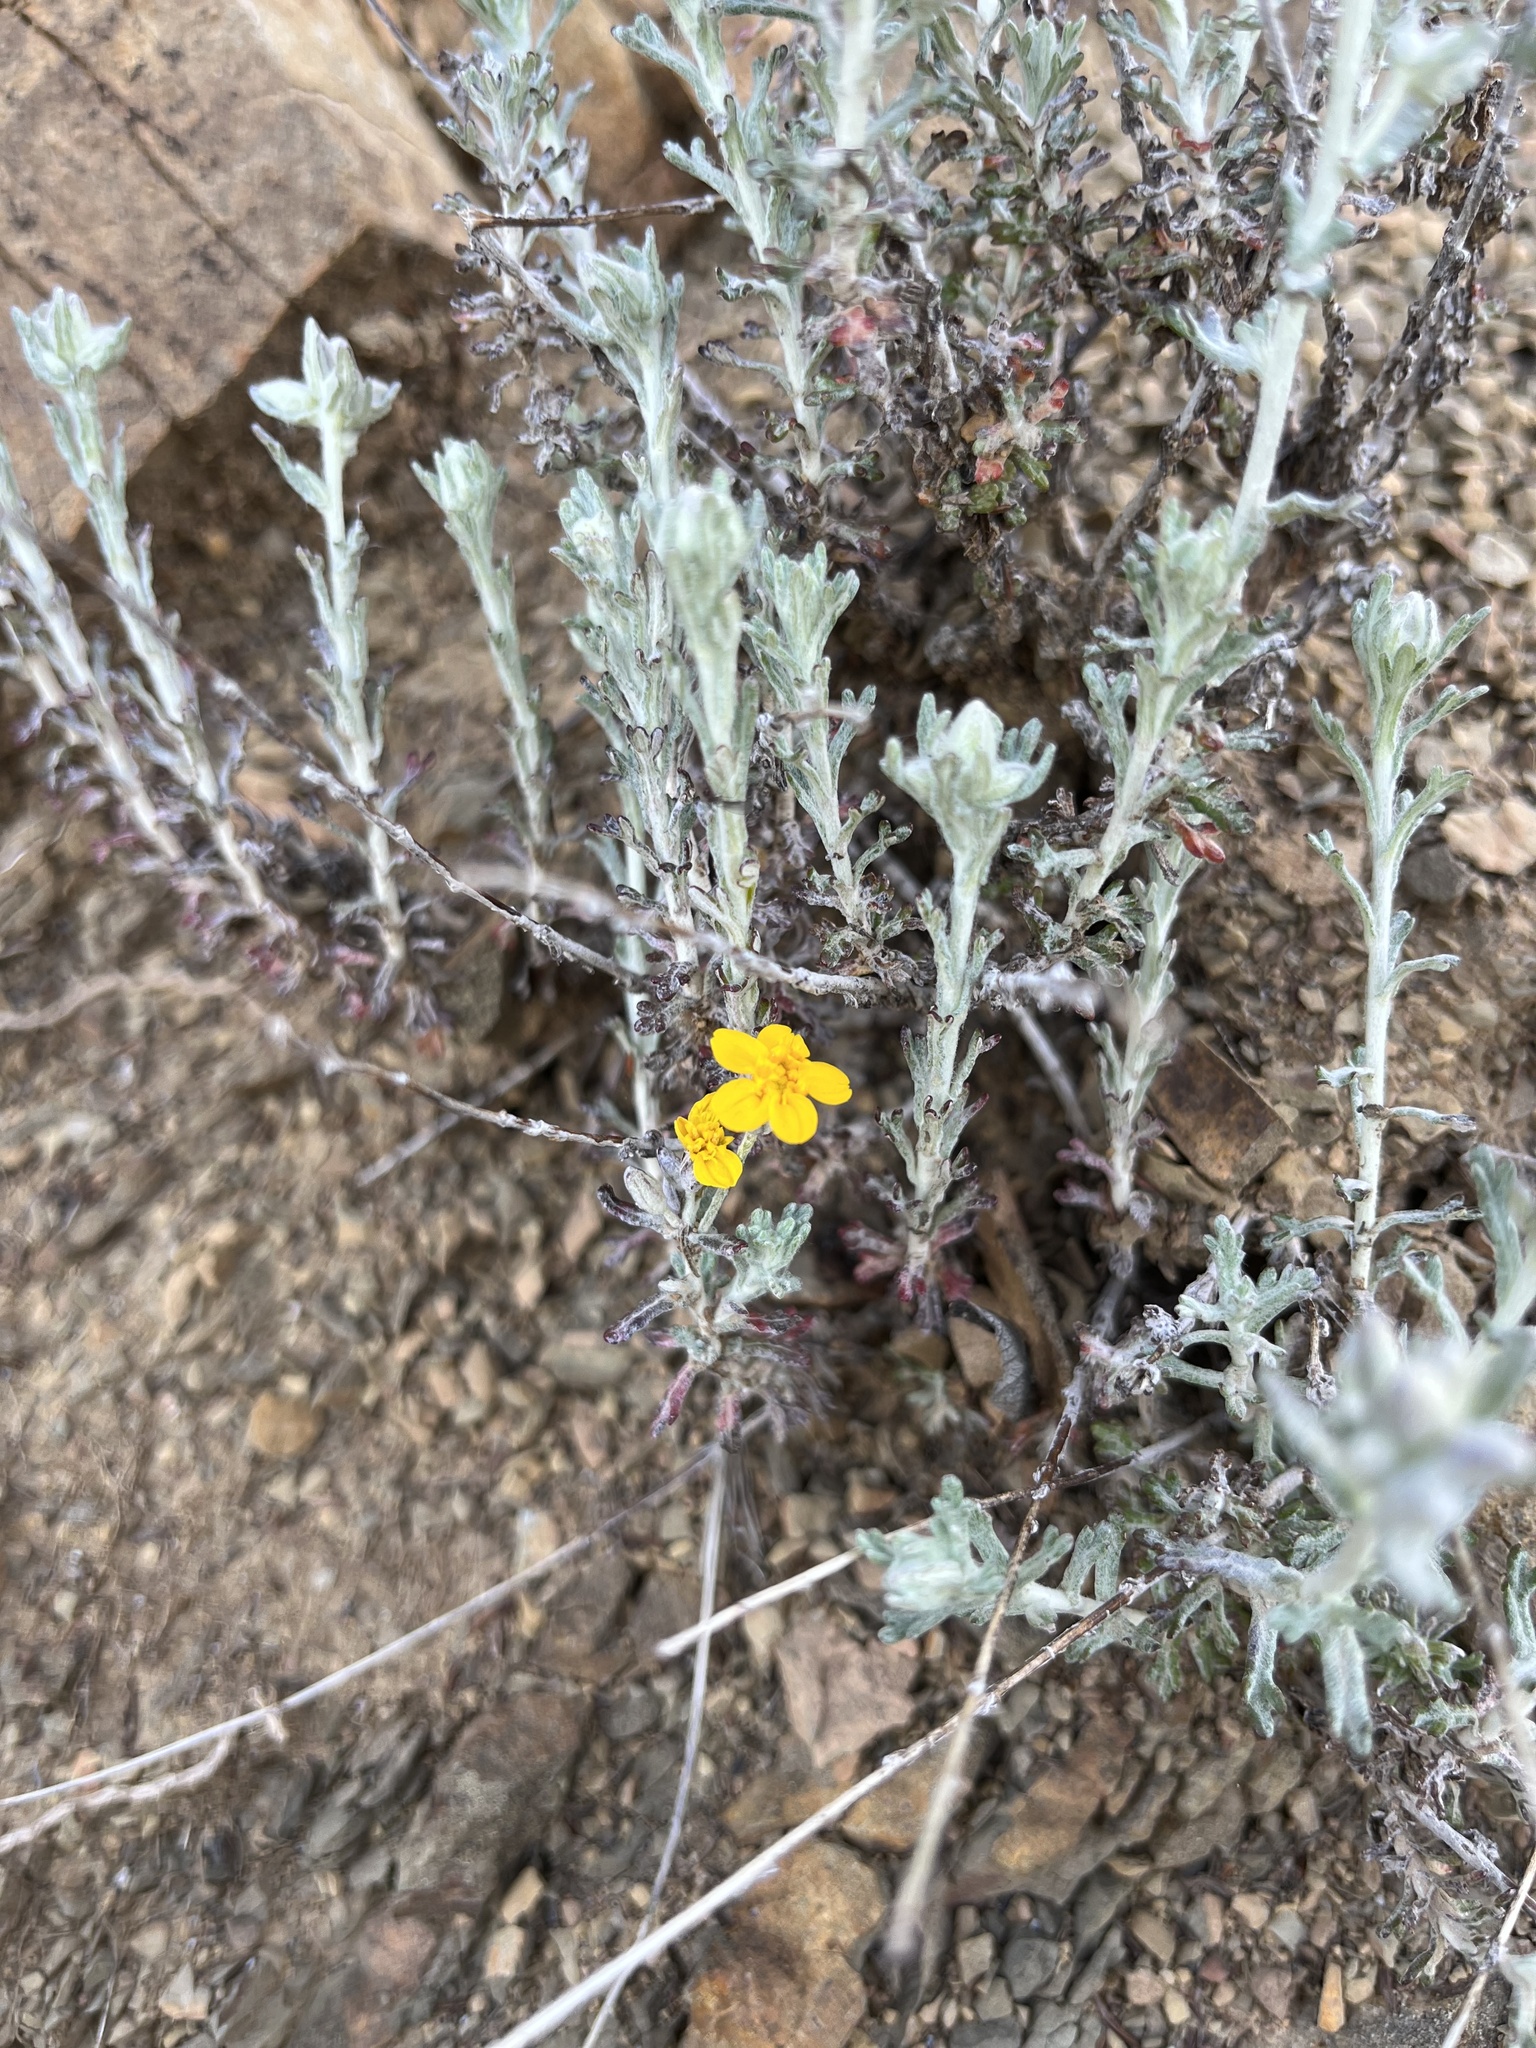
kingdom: Plantae
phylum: Tracheophyta
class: Magnoliopsida
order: Asterales
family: Asteraceae
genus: Eriophyllum
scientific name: Eriophyllum confertiflorum
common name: Golden-yarrow
